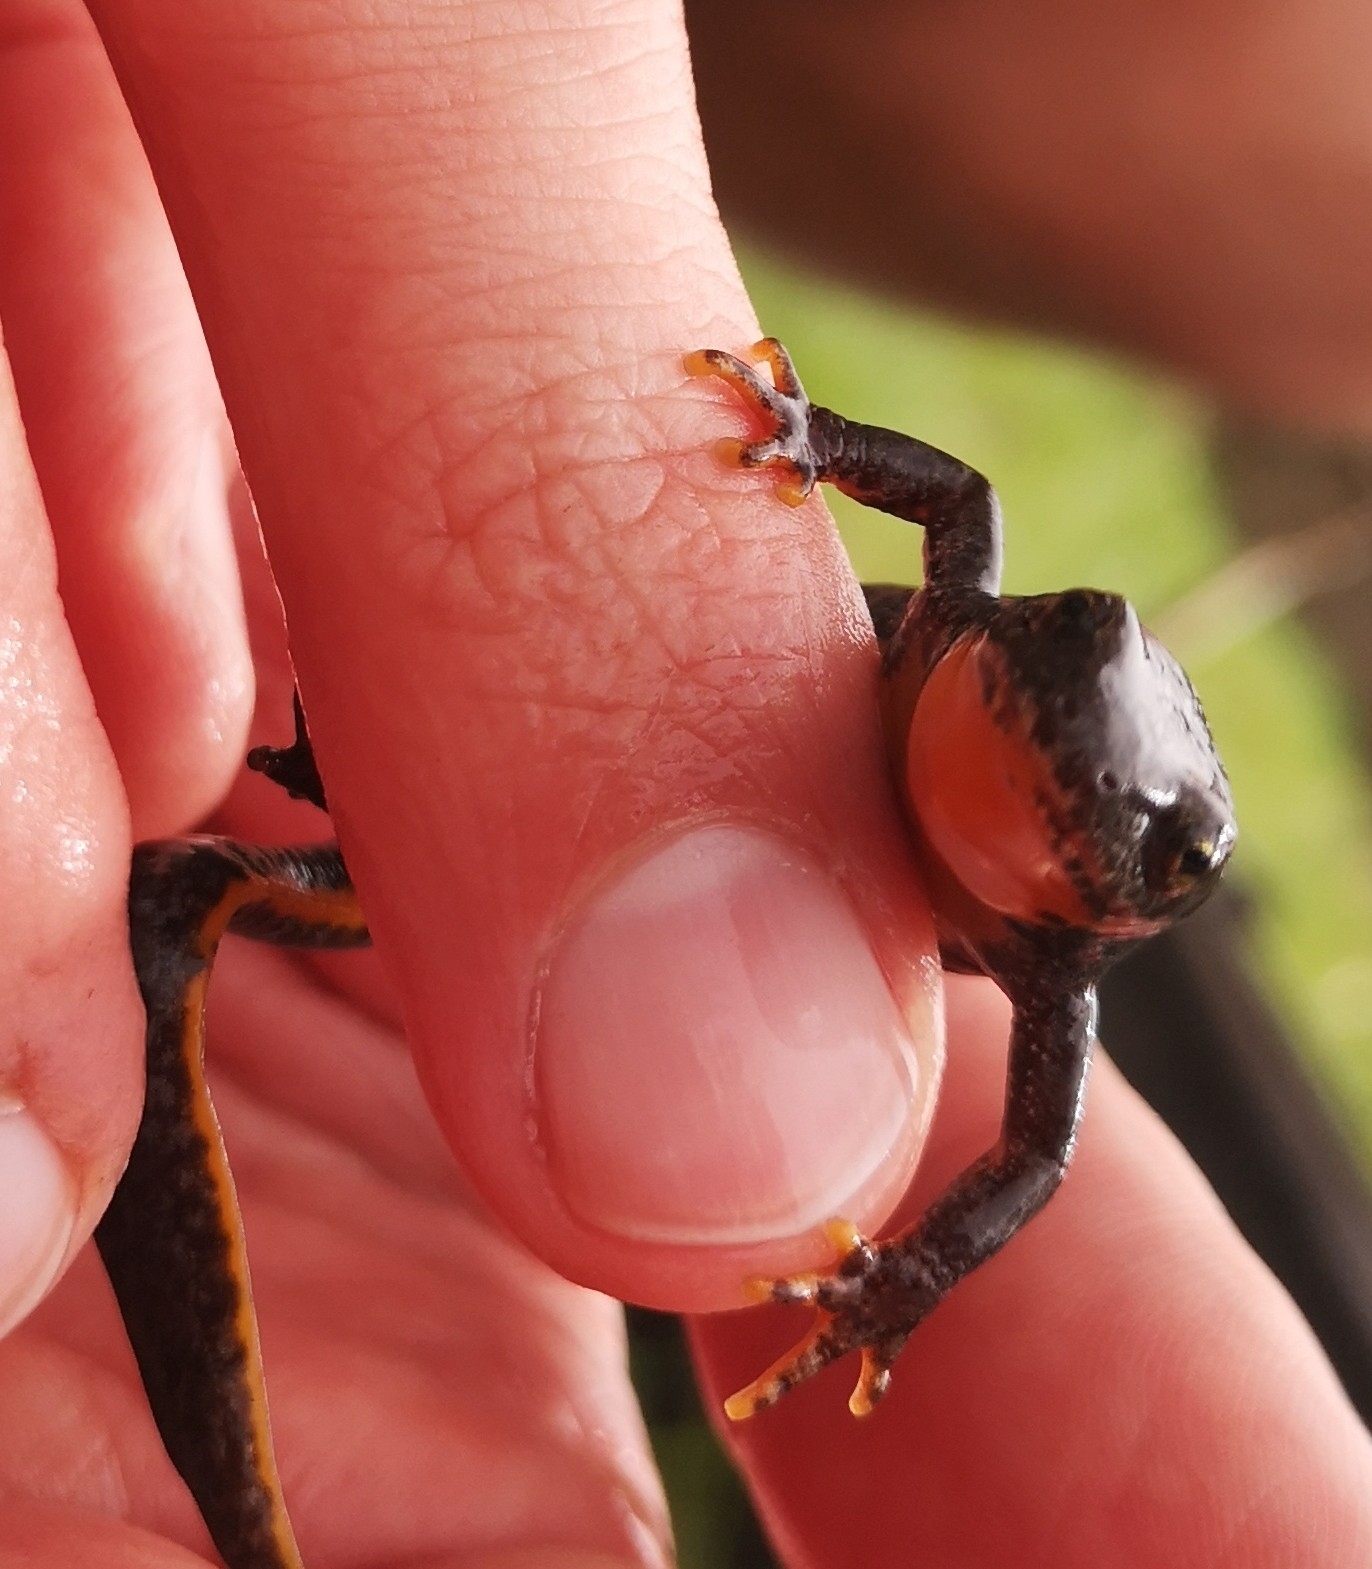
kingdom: Animalia
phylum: Chordata
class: Amphibia
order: Caudata
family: Salamandridae
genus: Ichthyosaura
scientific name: Ichthyosaura alpestris
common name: Alpine newt
